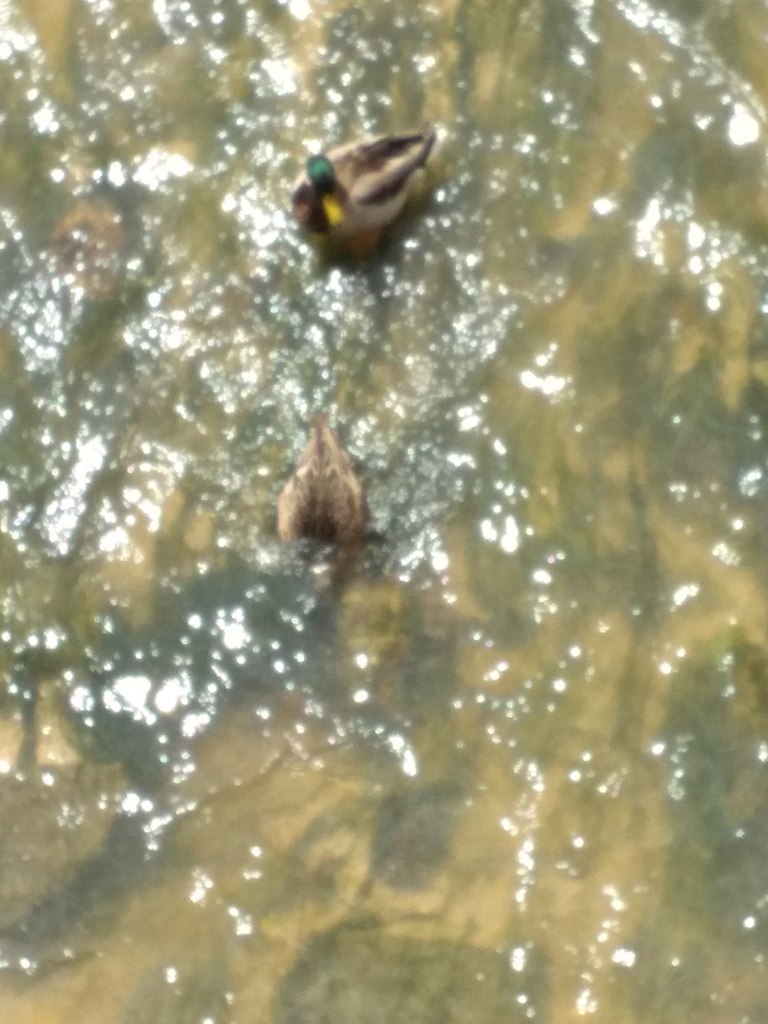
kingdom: Animalia
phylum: Chordata
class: Aves
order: Anseriformes
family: Anatidae
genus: Anas
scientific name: Anas platyrhynchos
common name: Mallard
